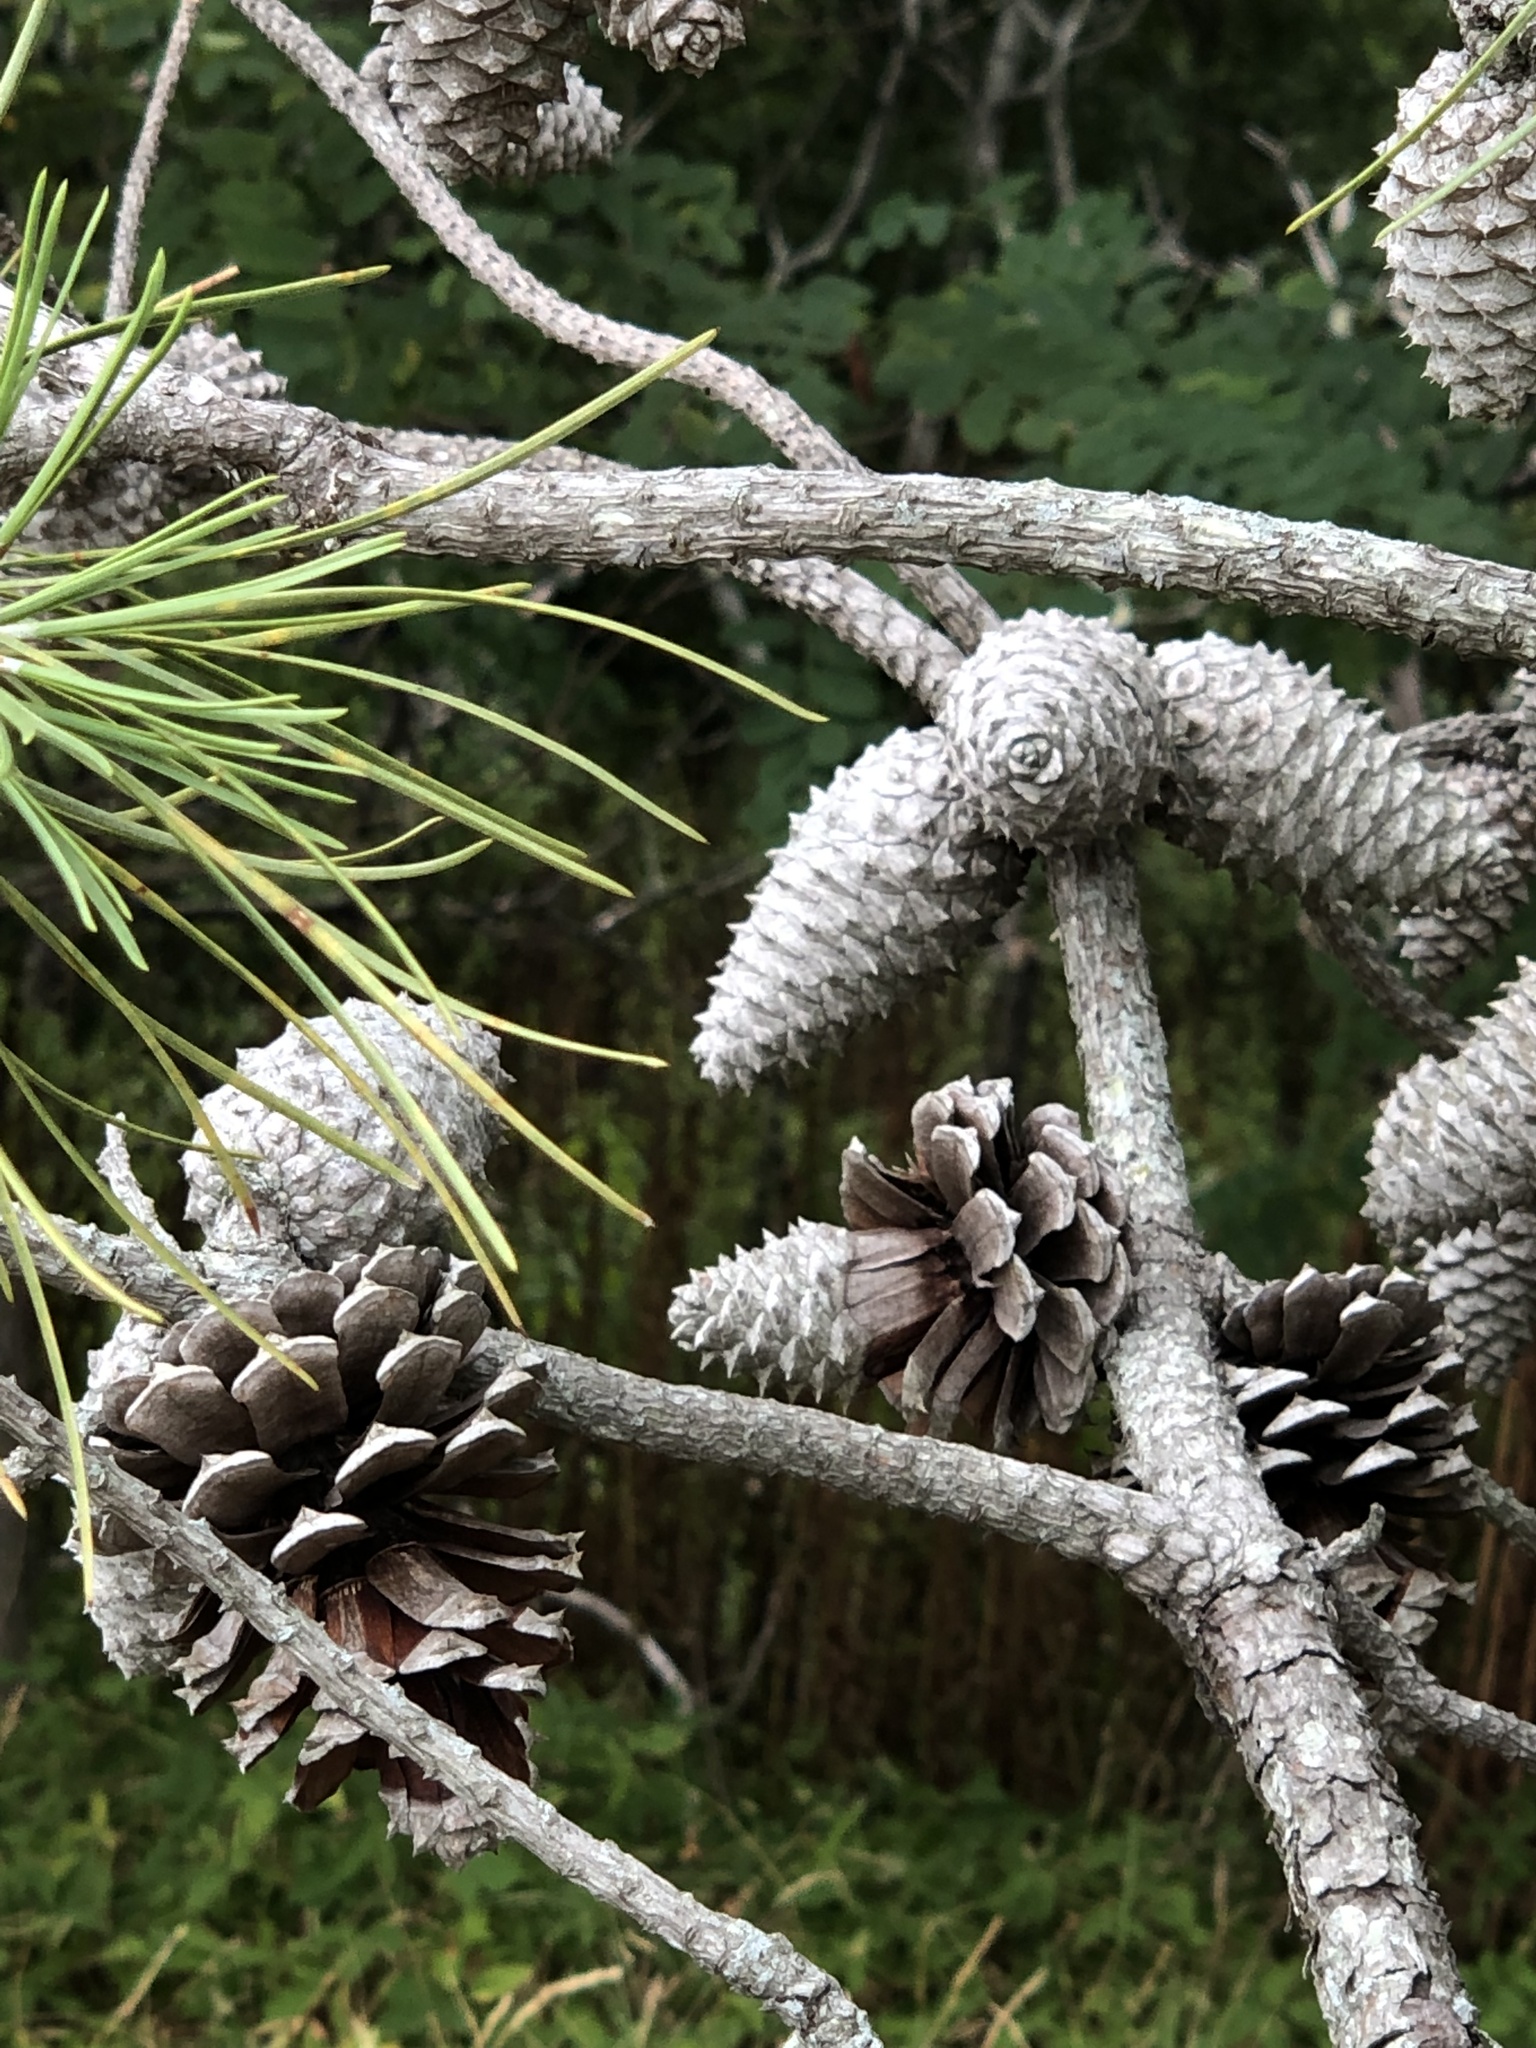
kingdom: Plantae
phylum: Tracheophyta
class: Pinopsida
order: Pinales
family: Pinaceae
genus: Pinus
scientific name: Pinus rigida
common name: Pitch pine
